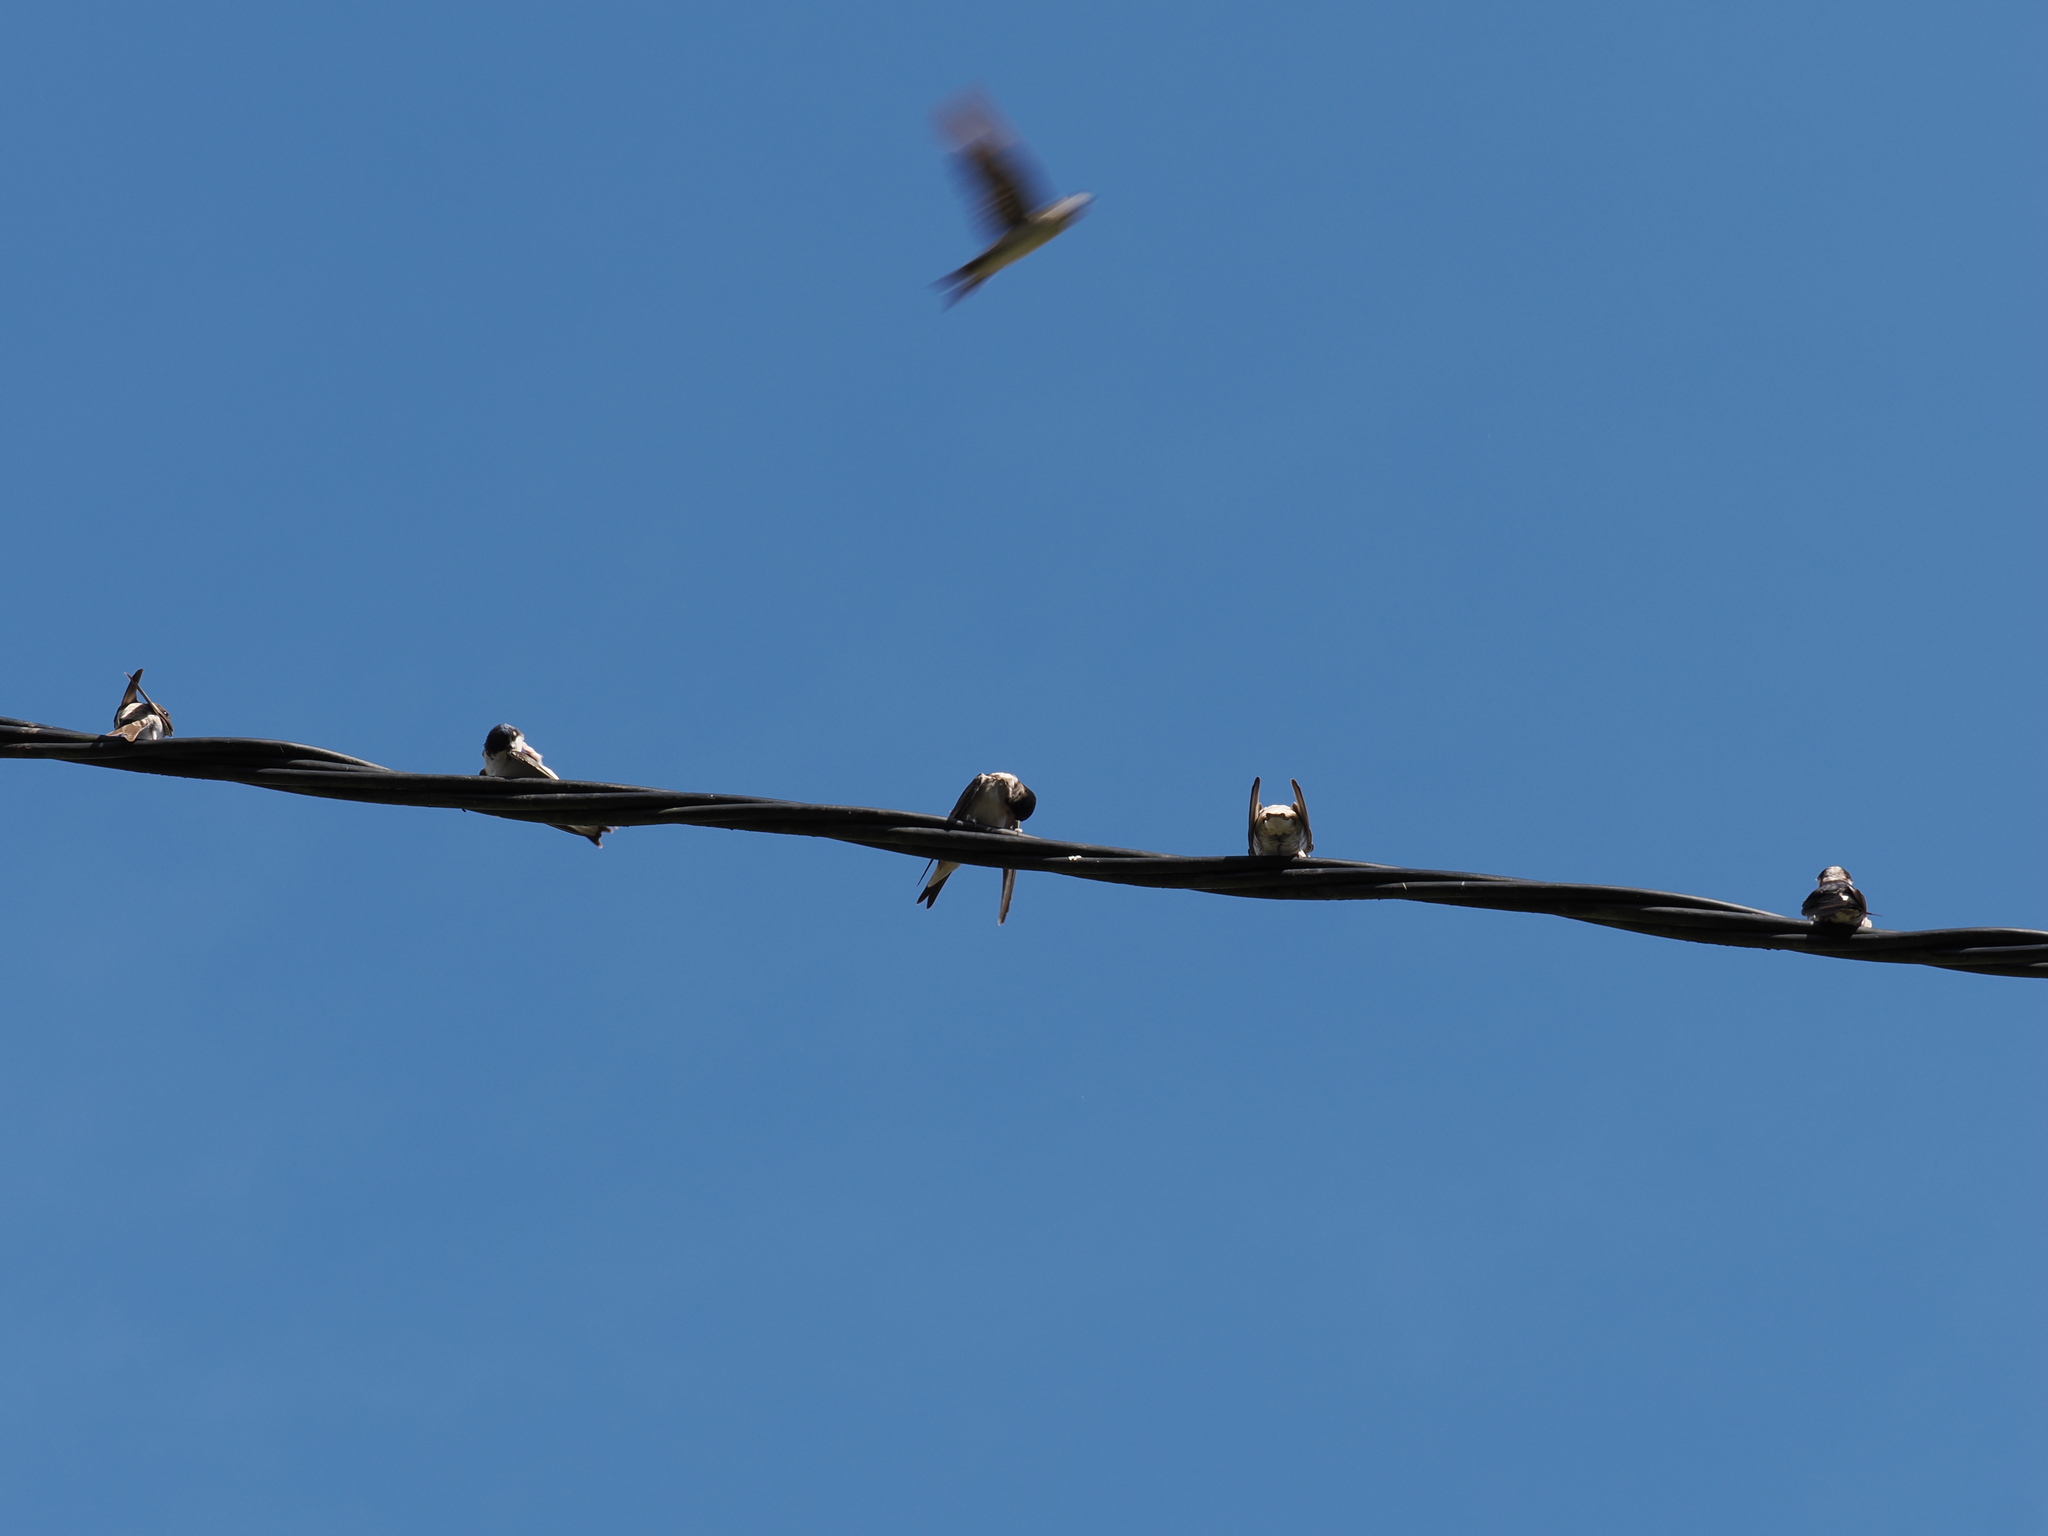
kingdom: Animalia
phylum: Chordata
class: Aves
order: Passeriformes
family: Hirundinidae
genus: Delichon
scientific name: Delichon urbicum
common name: Common house martin
